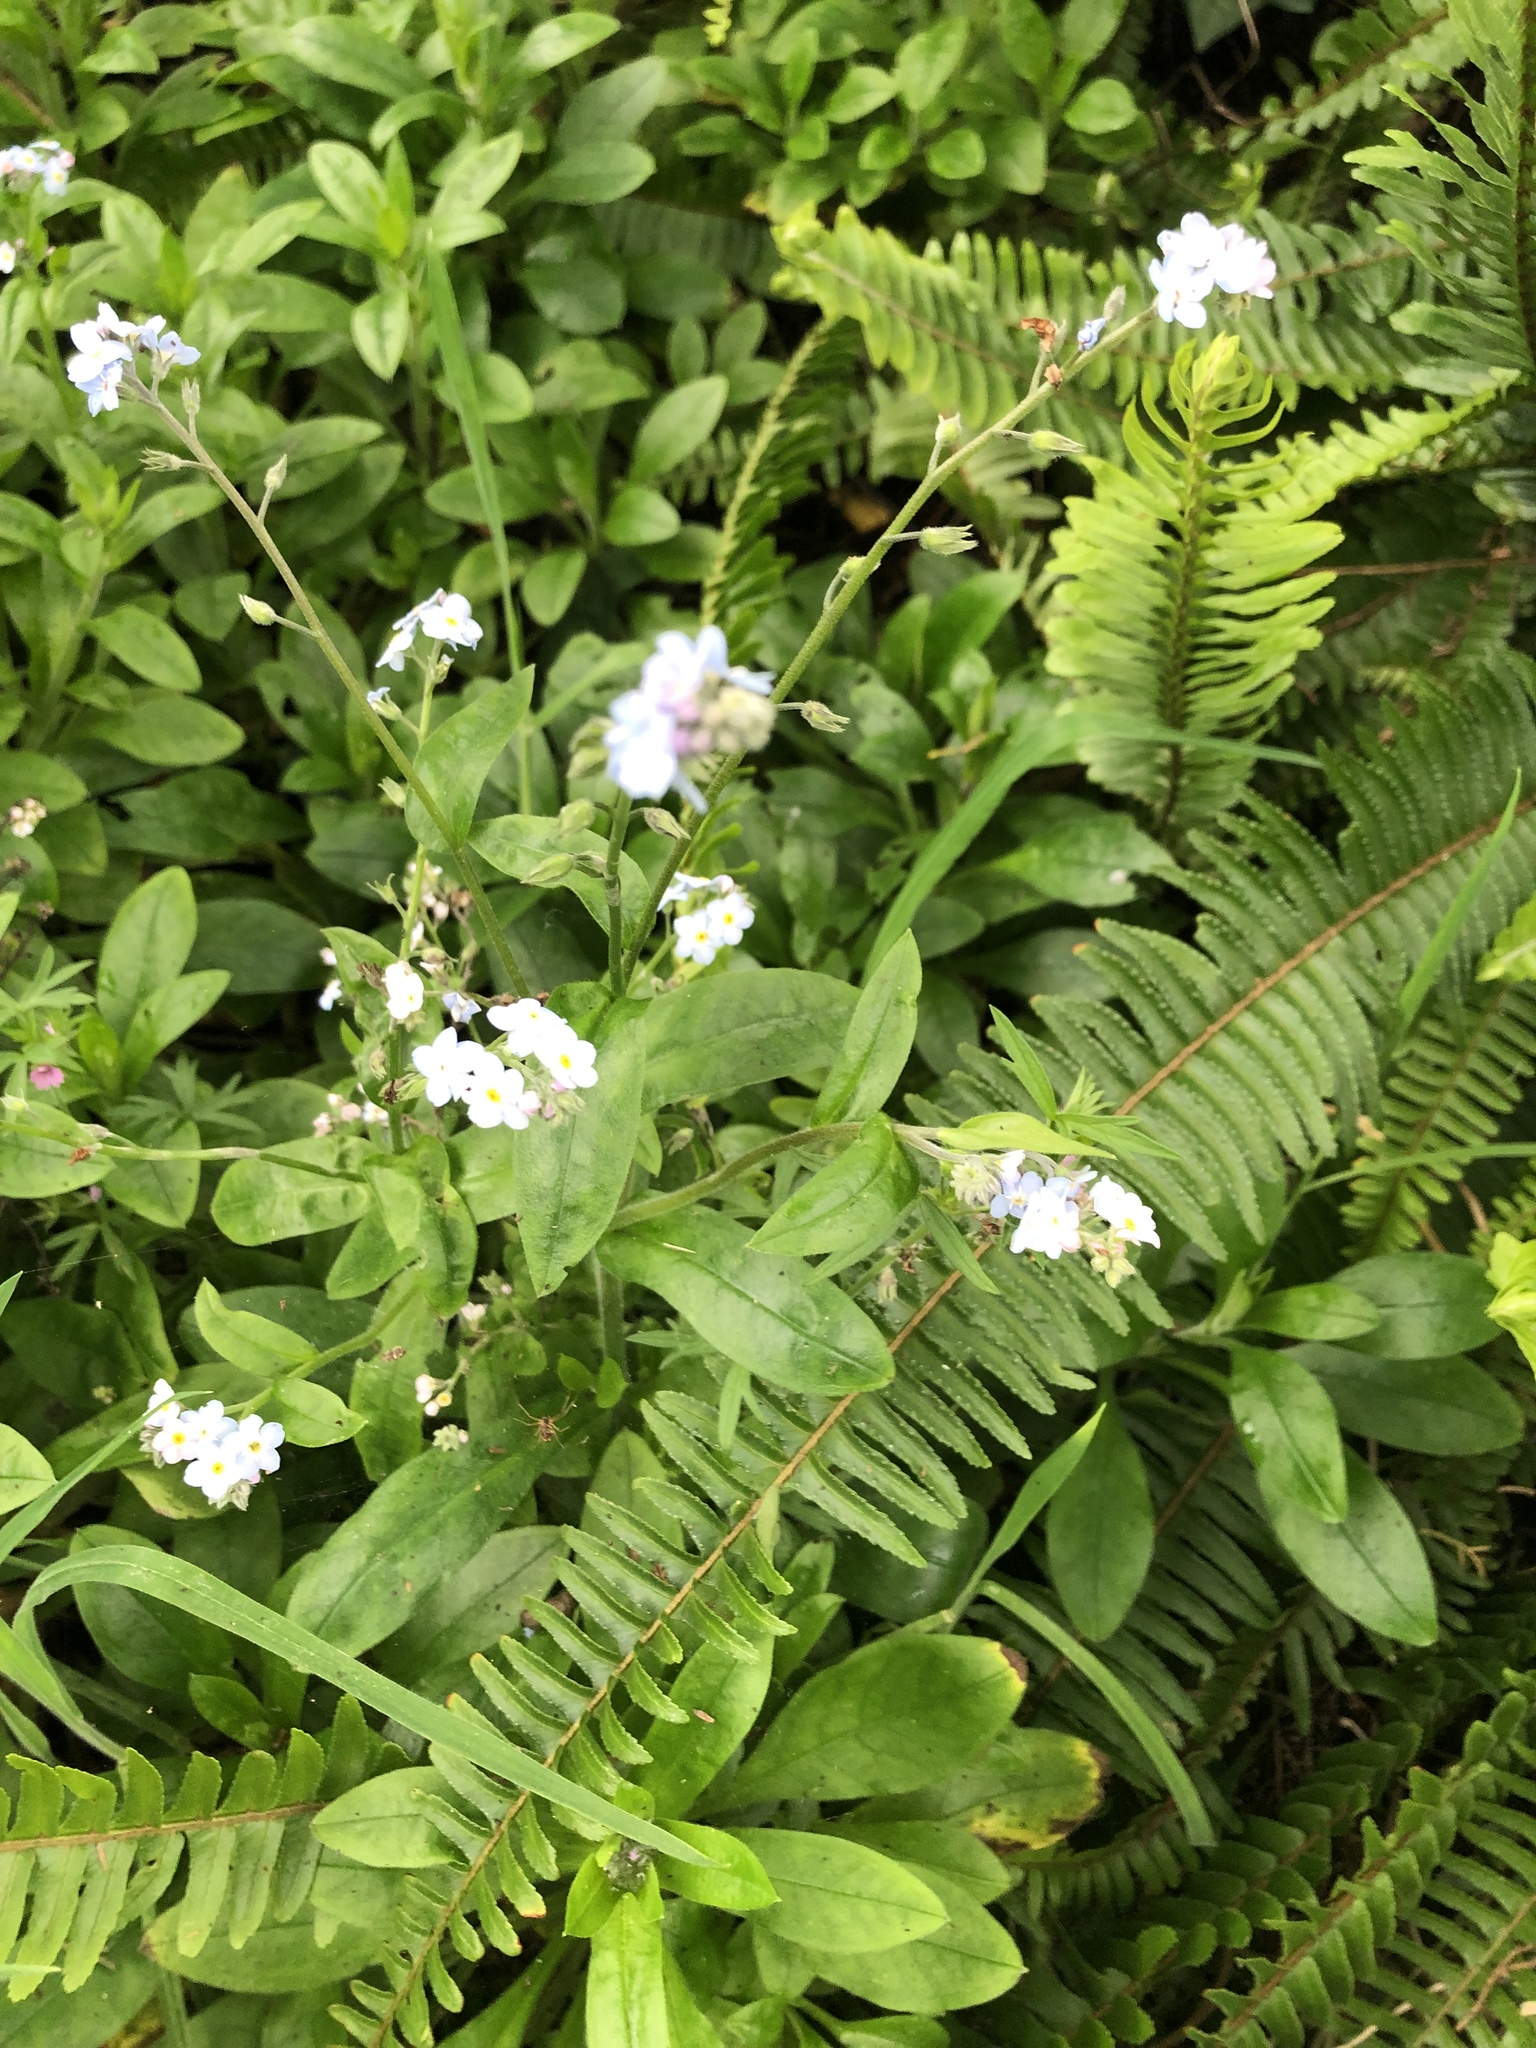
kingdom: Plantae
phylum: Tracheophyta
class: Magnoliopsida
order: Boraginales
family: Boraginaceae
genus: Myosotis
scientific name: Myosotis latifolia
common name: Broadleaf forget-me-not
